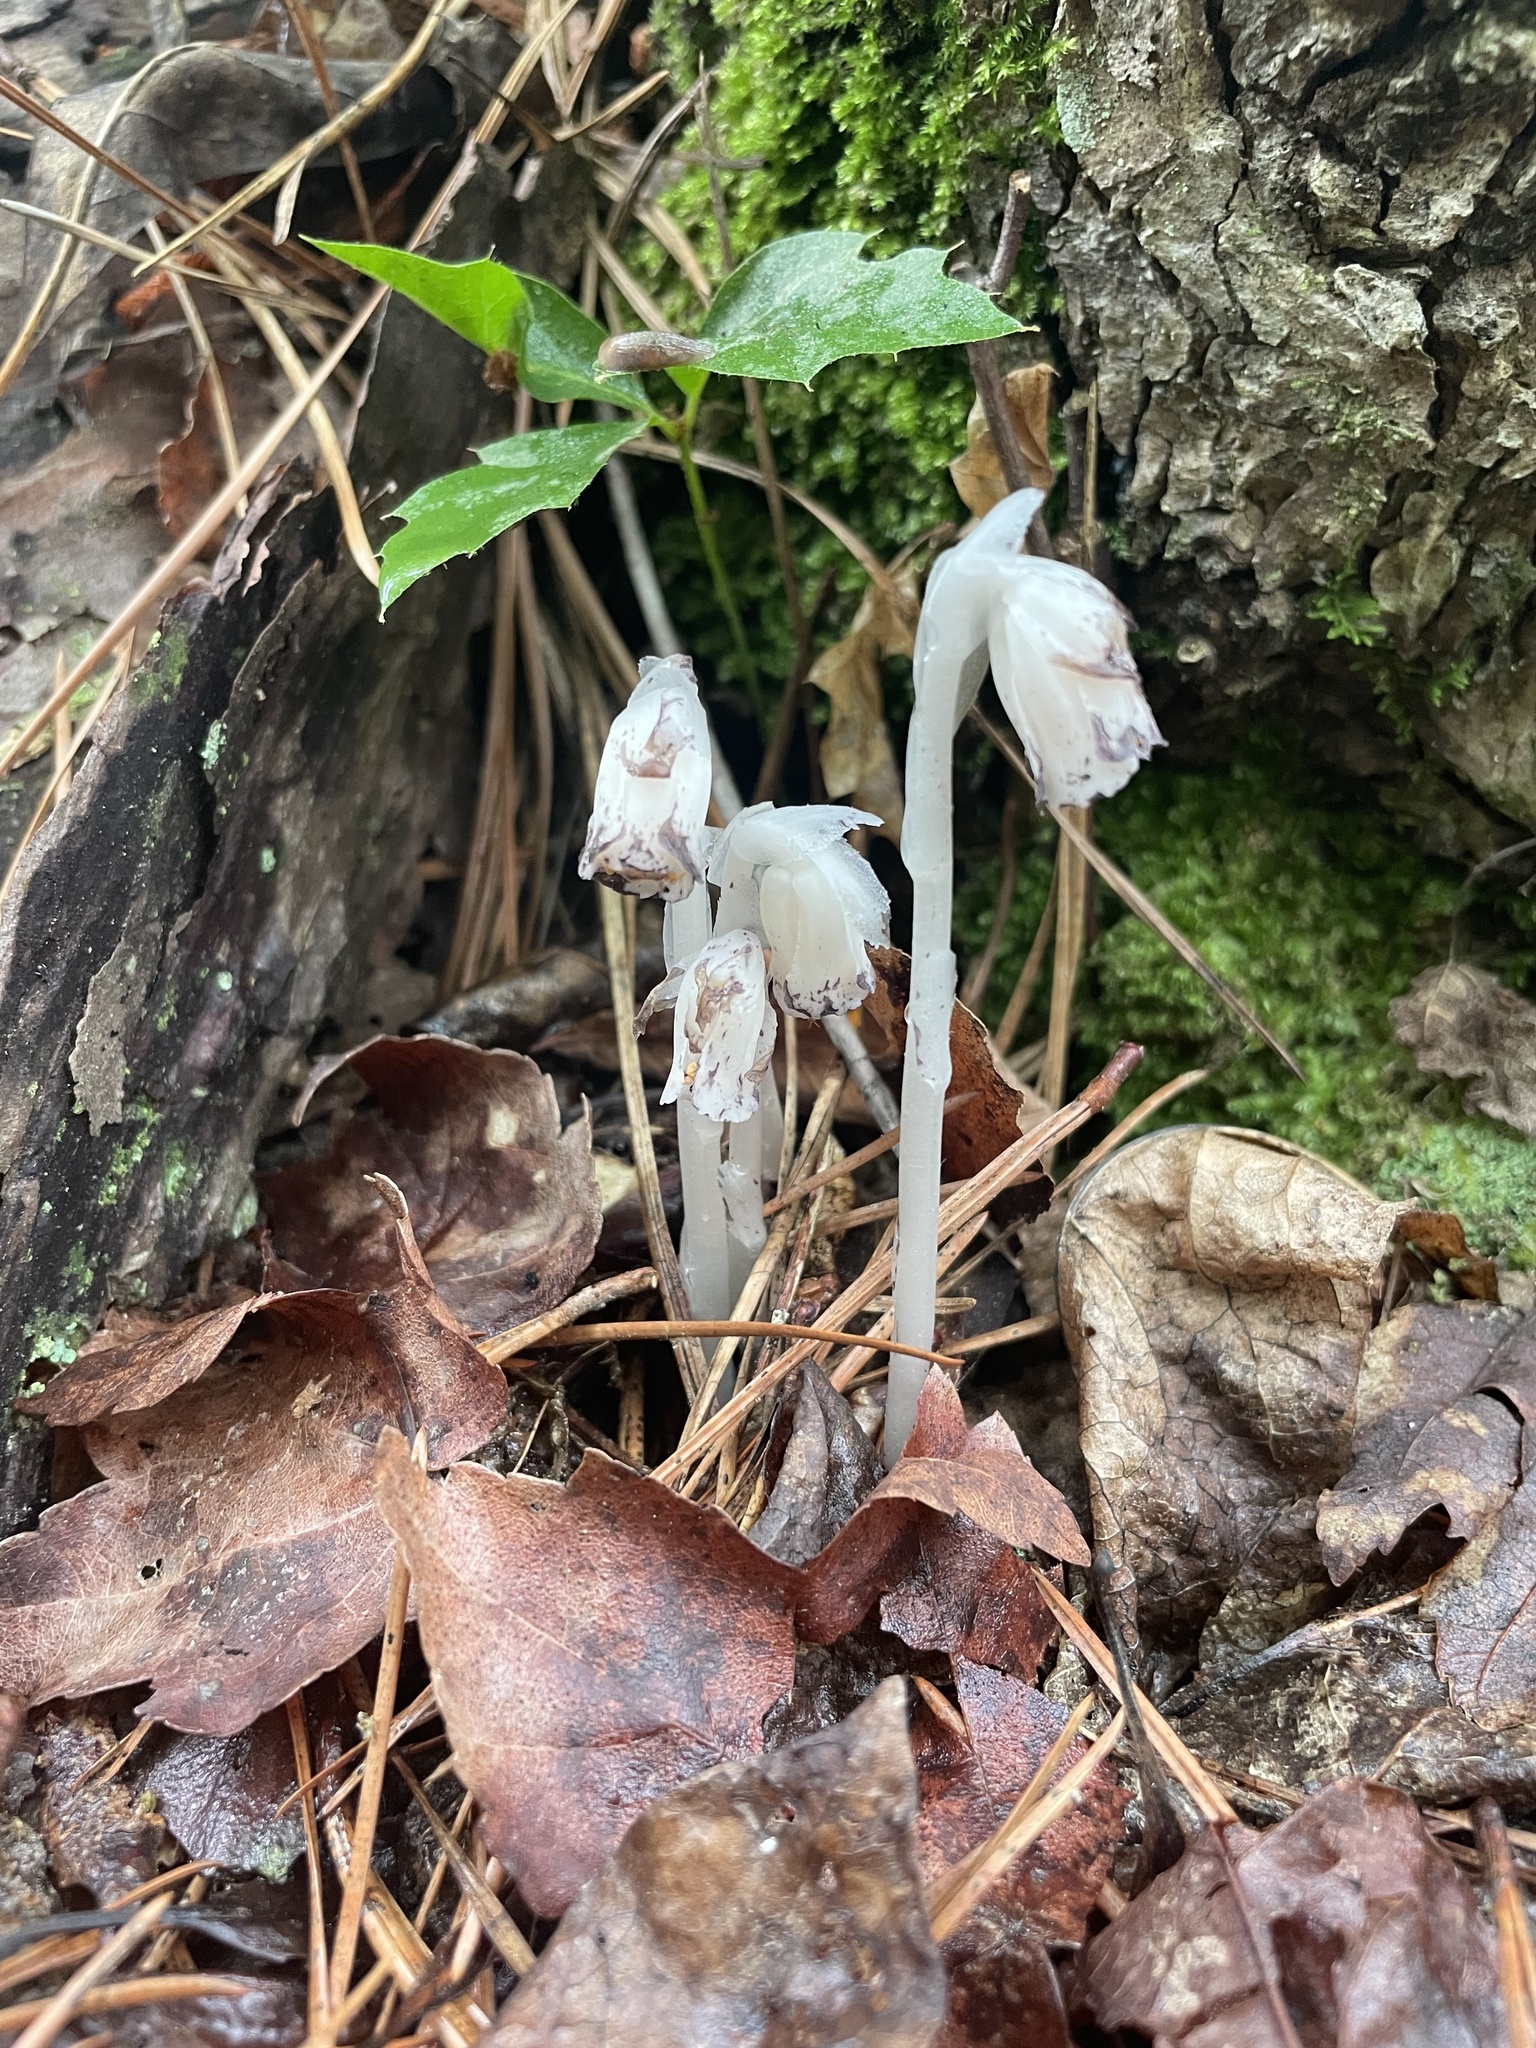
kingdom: Plantae
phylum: Tracheophyta
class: Magnoliopsida
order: Ericales
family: Ericaceae
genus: Monotropa
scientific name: Monotropa uniflora
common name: Convulsion root
